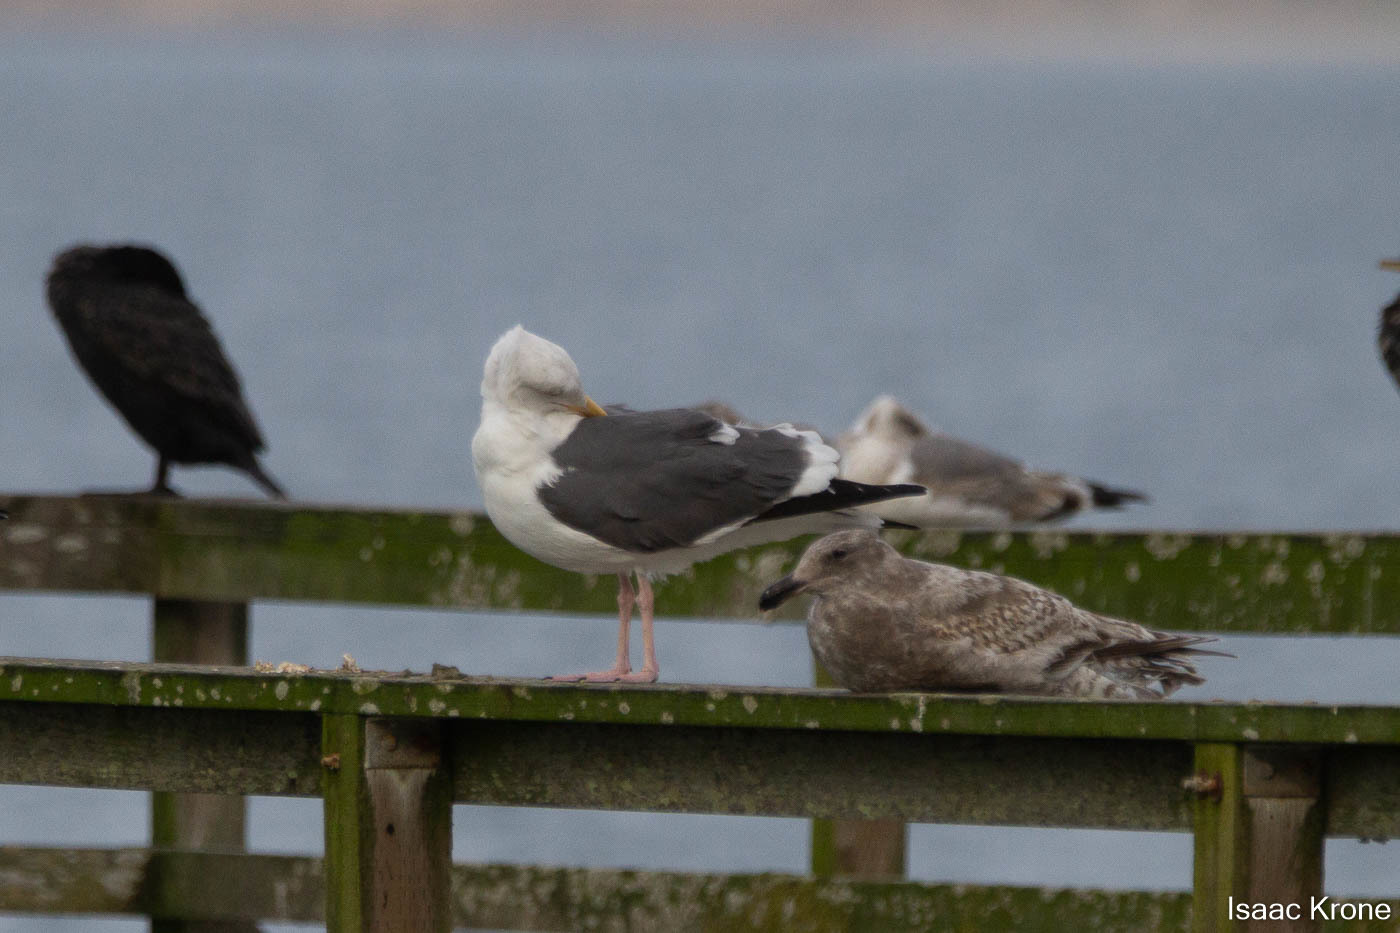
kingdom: Animalia
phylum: Chordata
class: Aves
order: Charadriiformes
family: Laridae
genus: Larus
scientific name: Larus occidentalis
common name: Western gull
